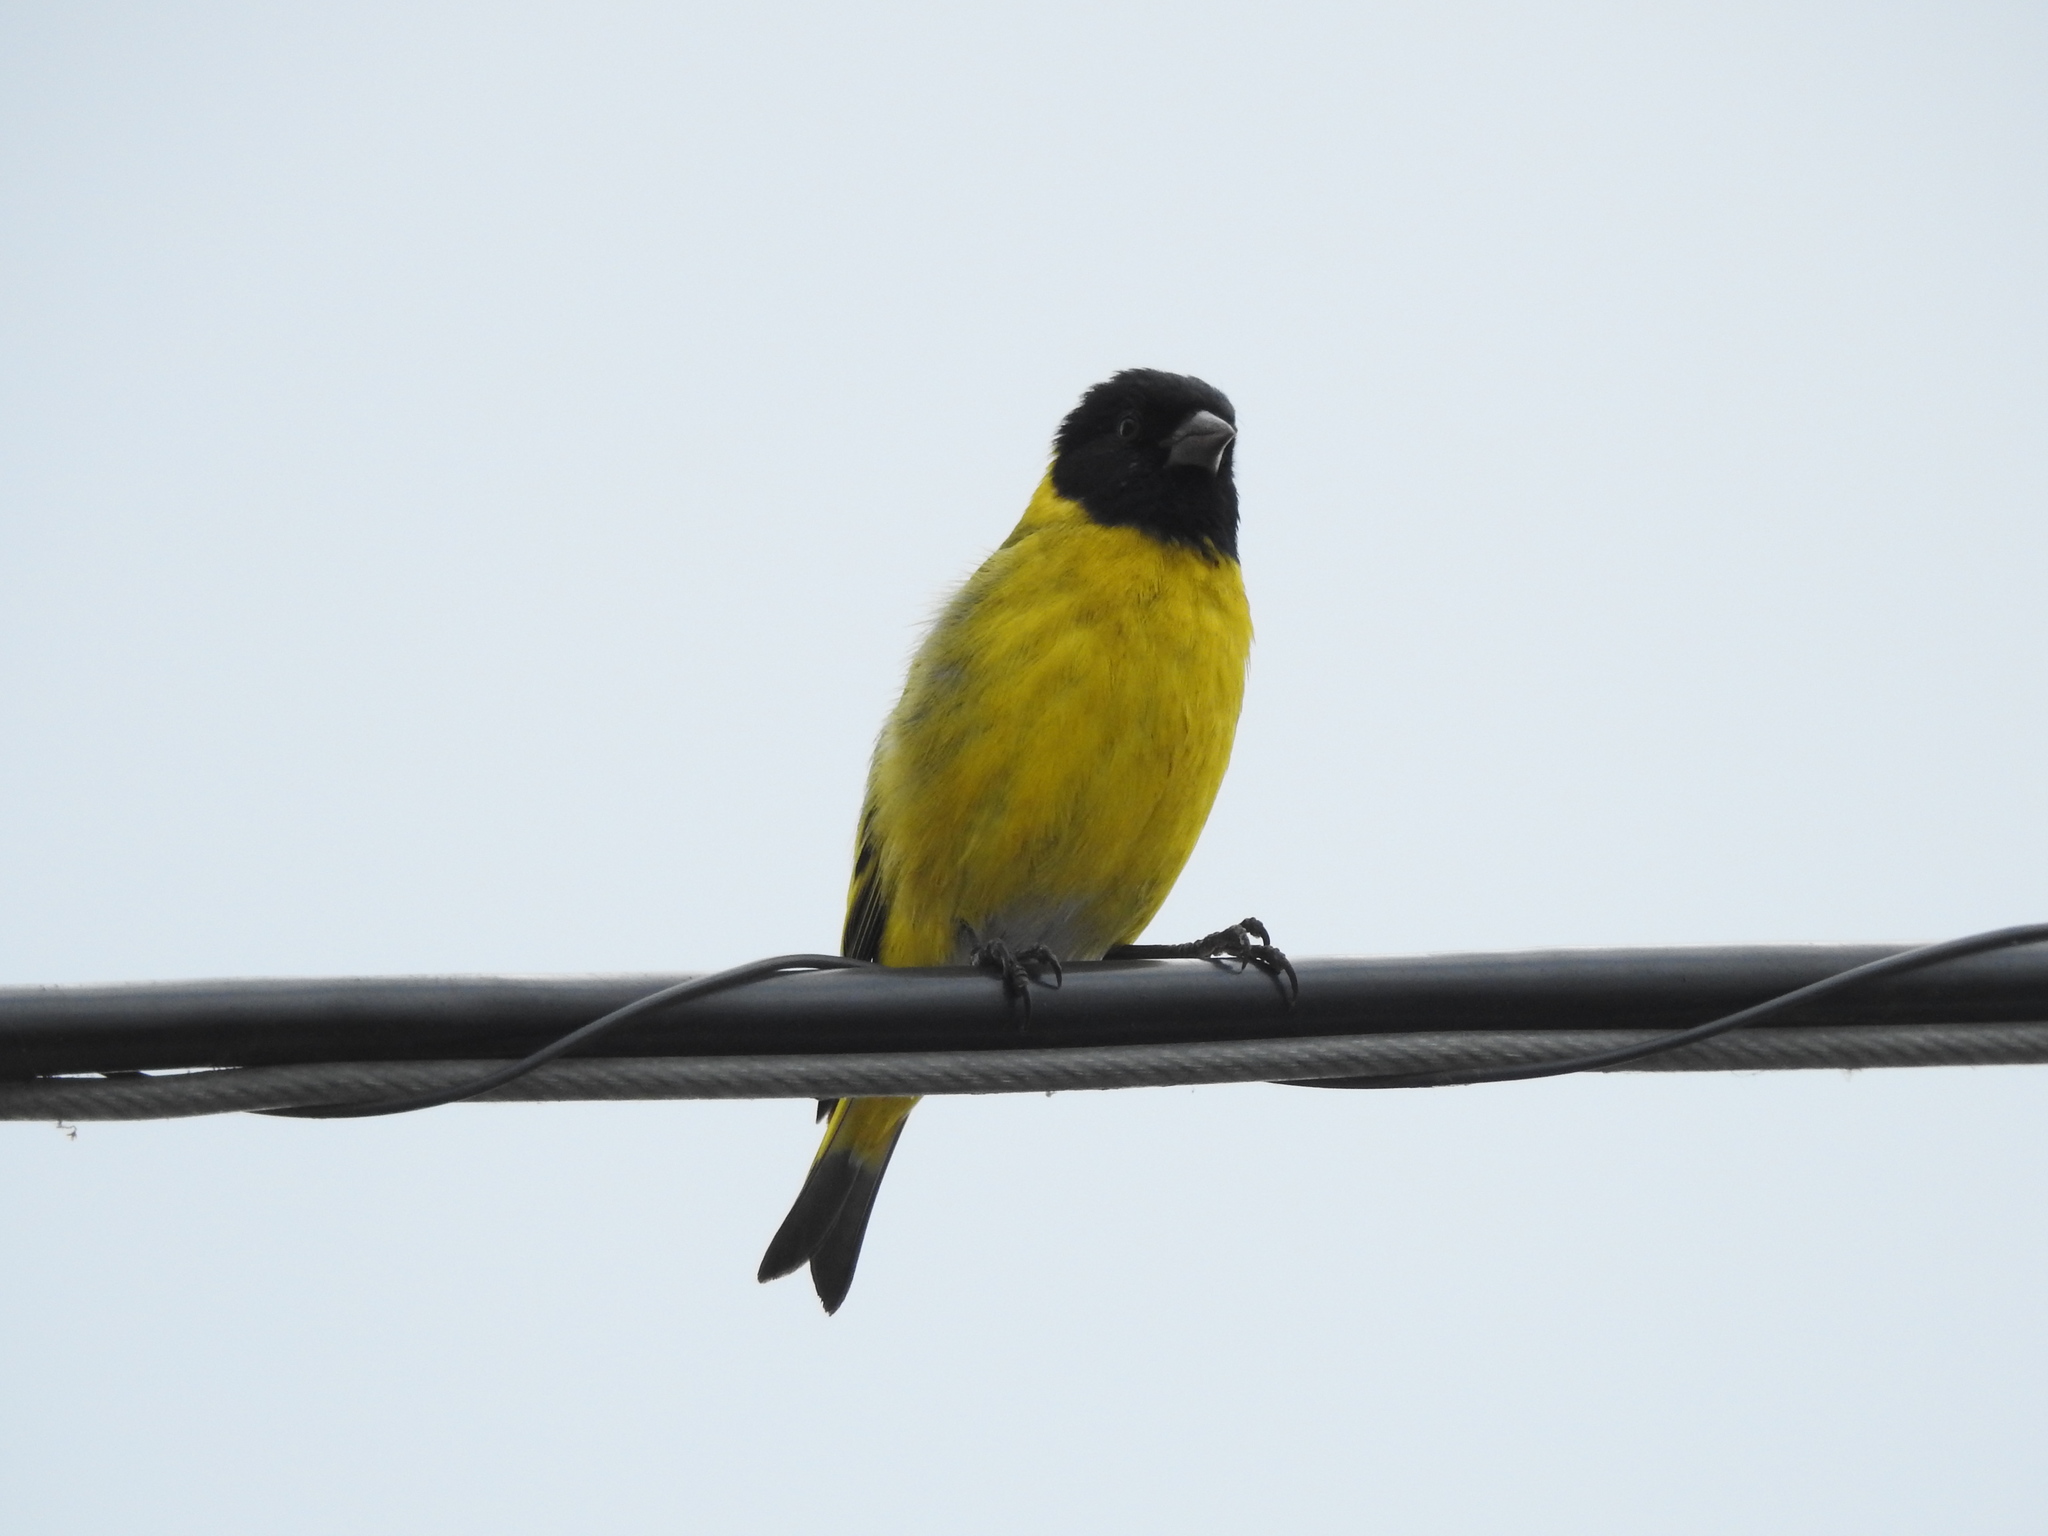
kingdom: Animalia
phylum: Chordata
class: Aves
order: Passeriformes
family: Fringillidae
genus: Spinus
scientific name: Spinus magellanicus
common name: Hooded siskin
